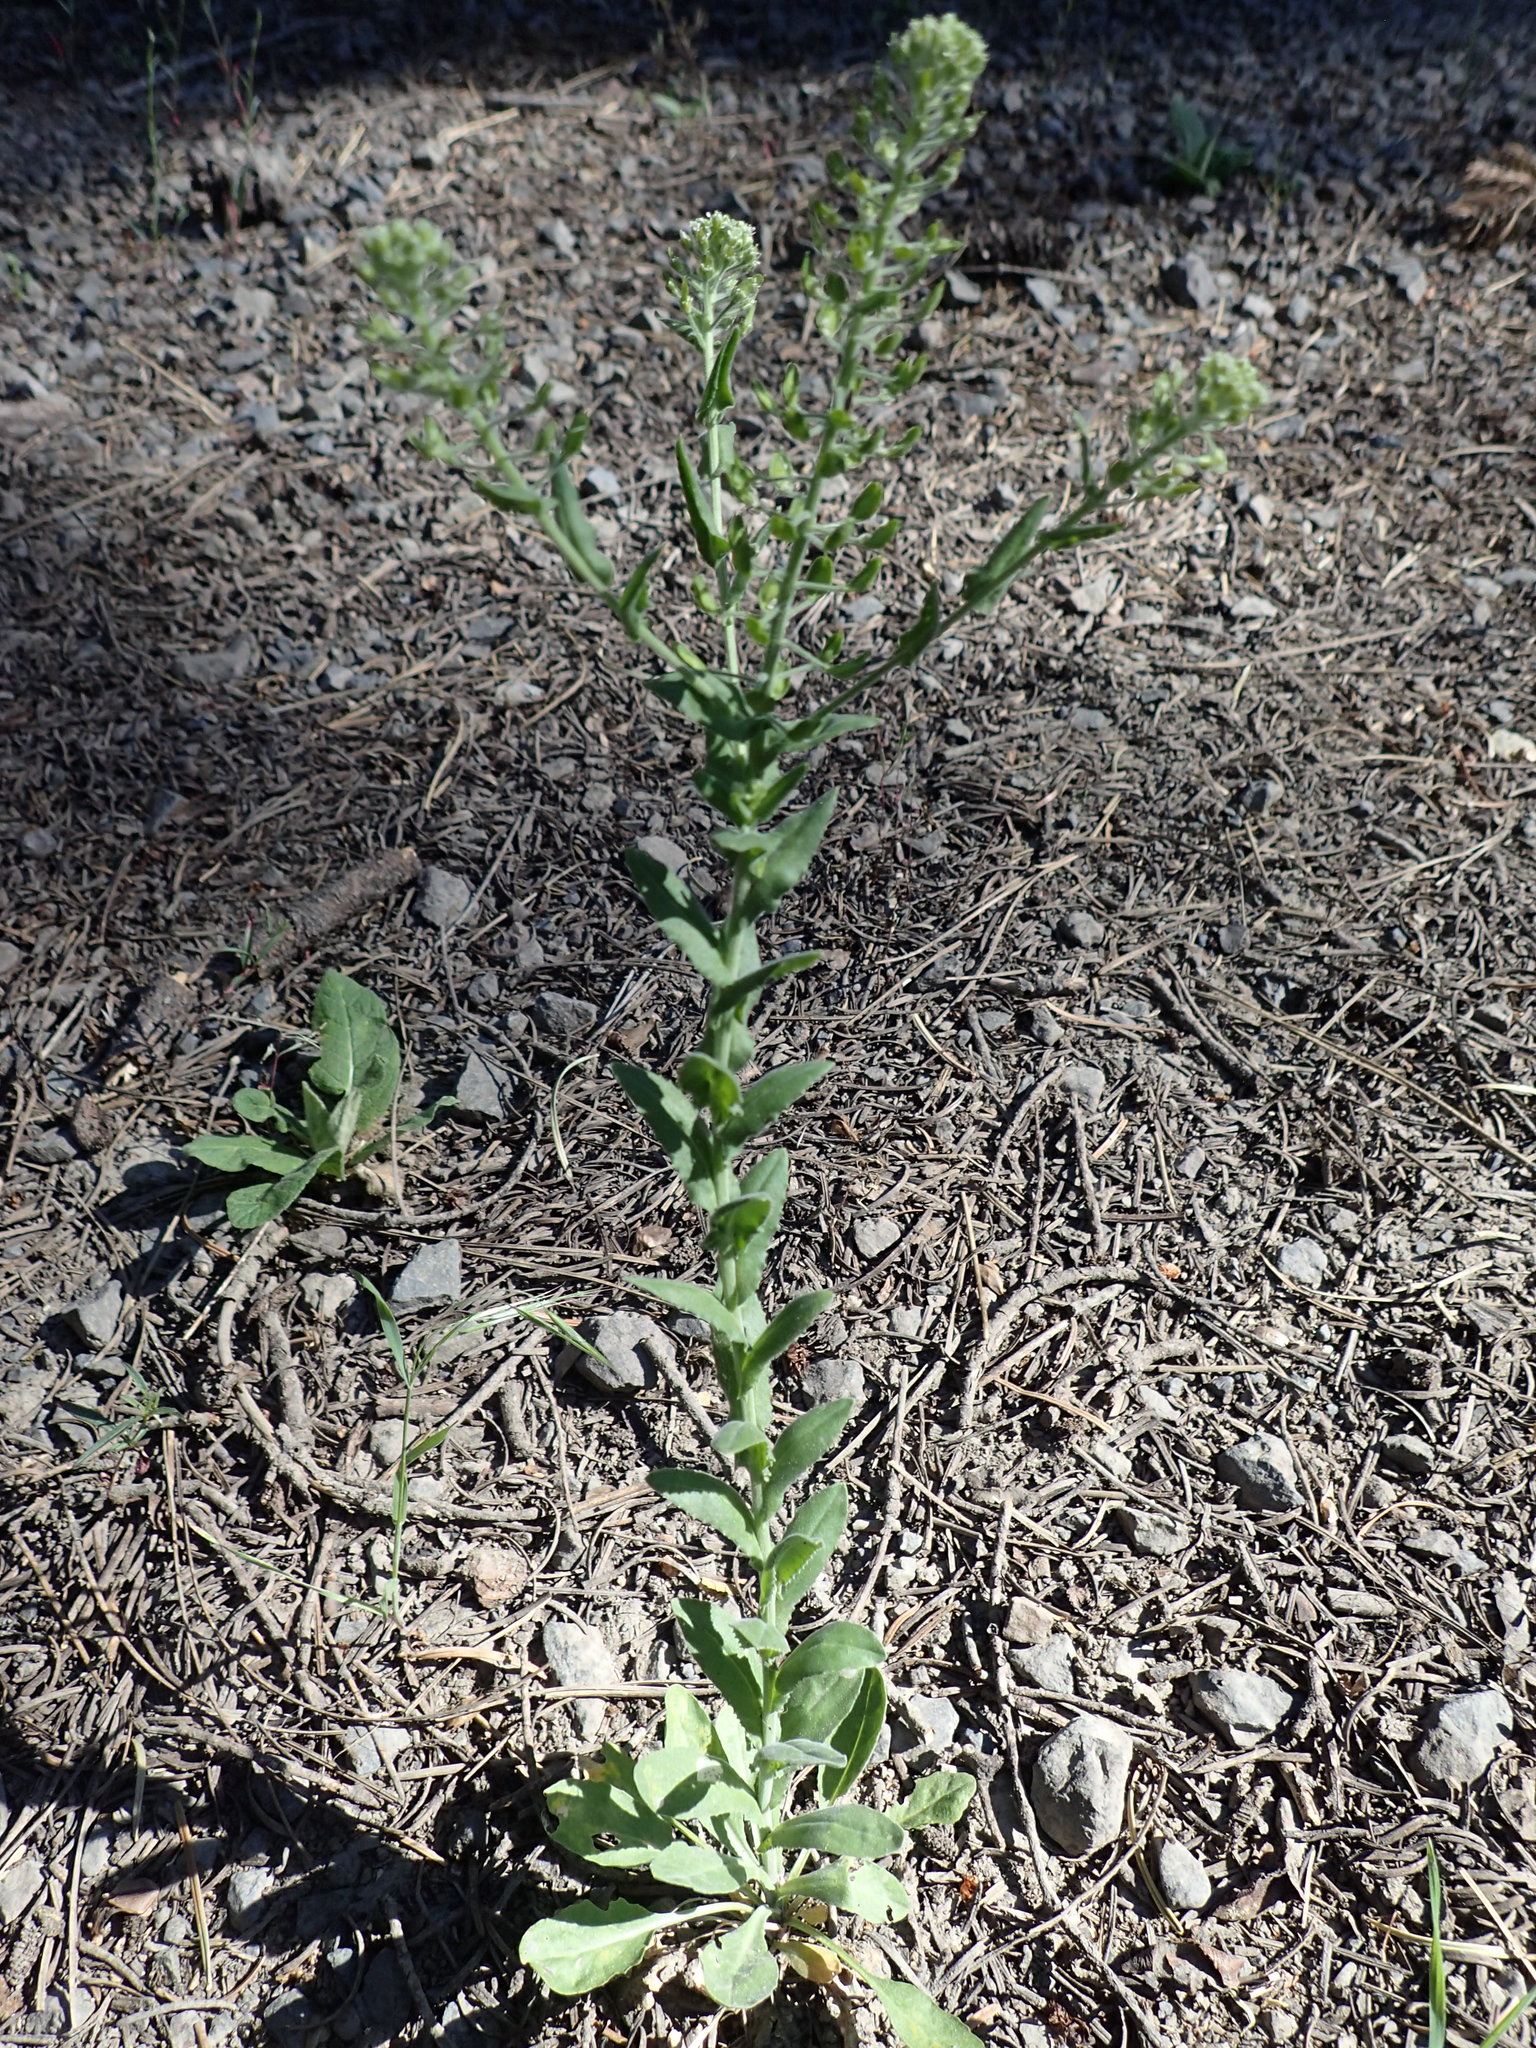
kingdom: Plantae
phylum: Tracheophyta
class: Magnoliopsida
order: Brassicales
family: Brassicaceae
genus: Lepidium
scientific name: Lepidium campestre
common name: Field pepperwort
